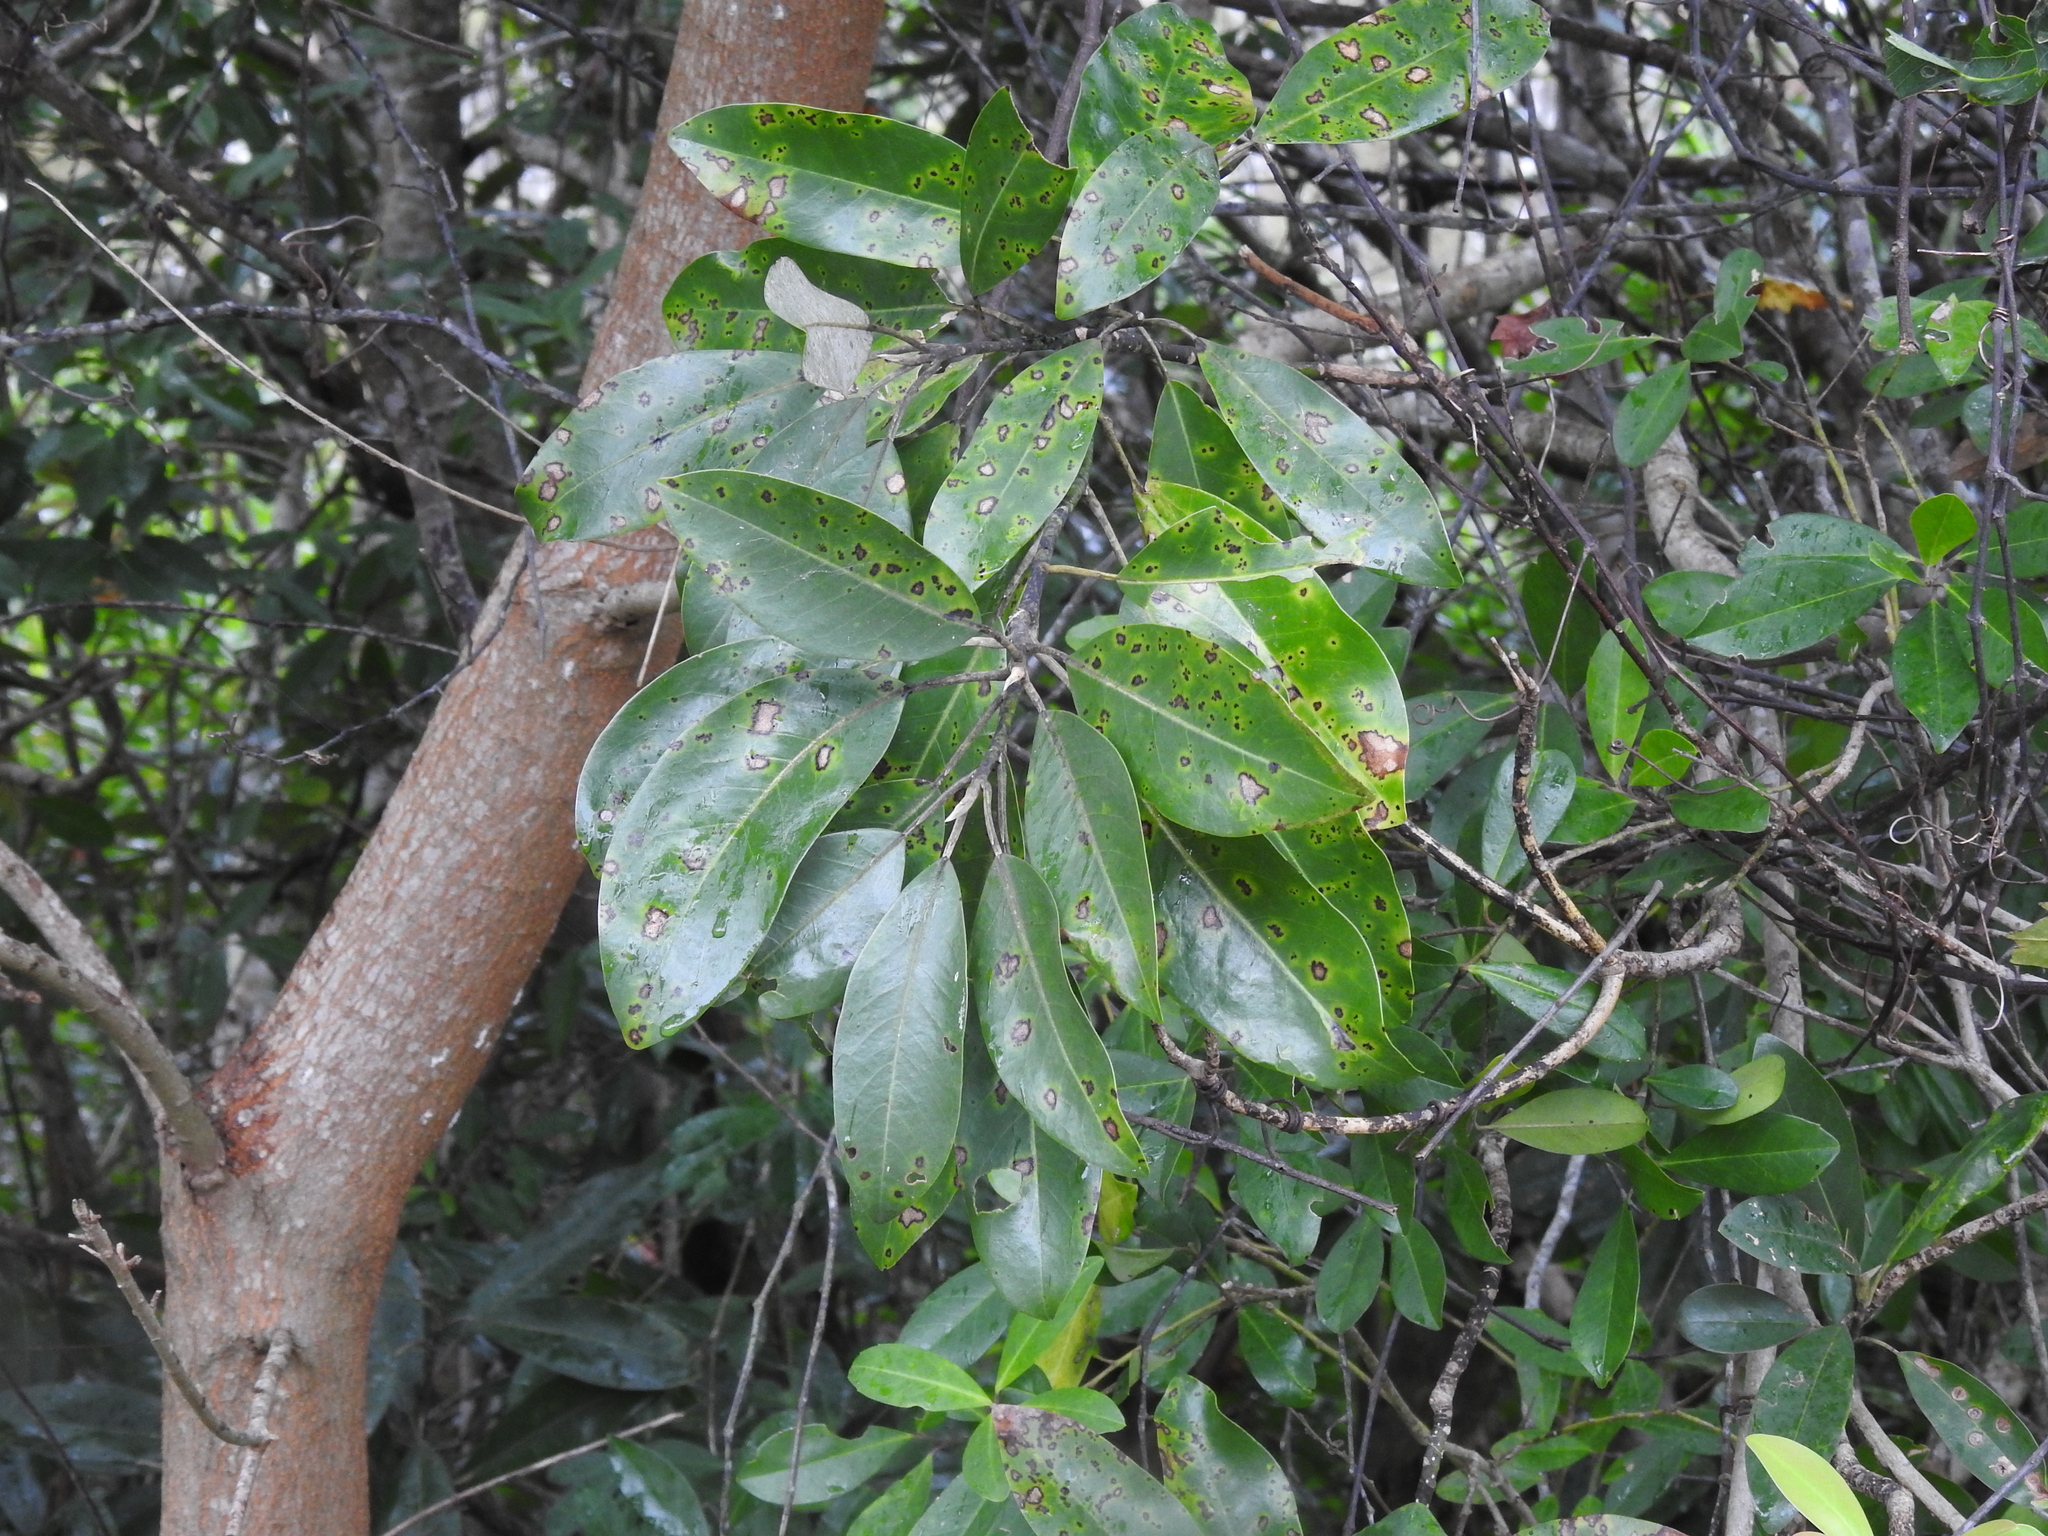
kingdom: Plantae
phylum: Tracheophyta
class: Magnoliopsida
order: Magnoliales
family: Magnoliaceae
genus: Magnolia
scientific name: Magnolia virginiana
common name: Swamp bay
